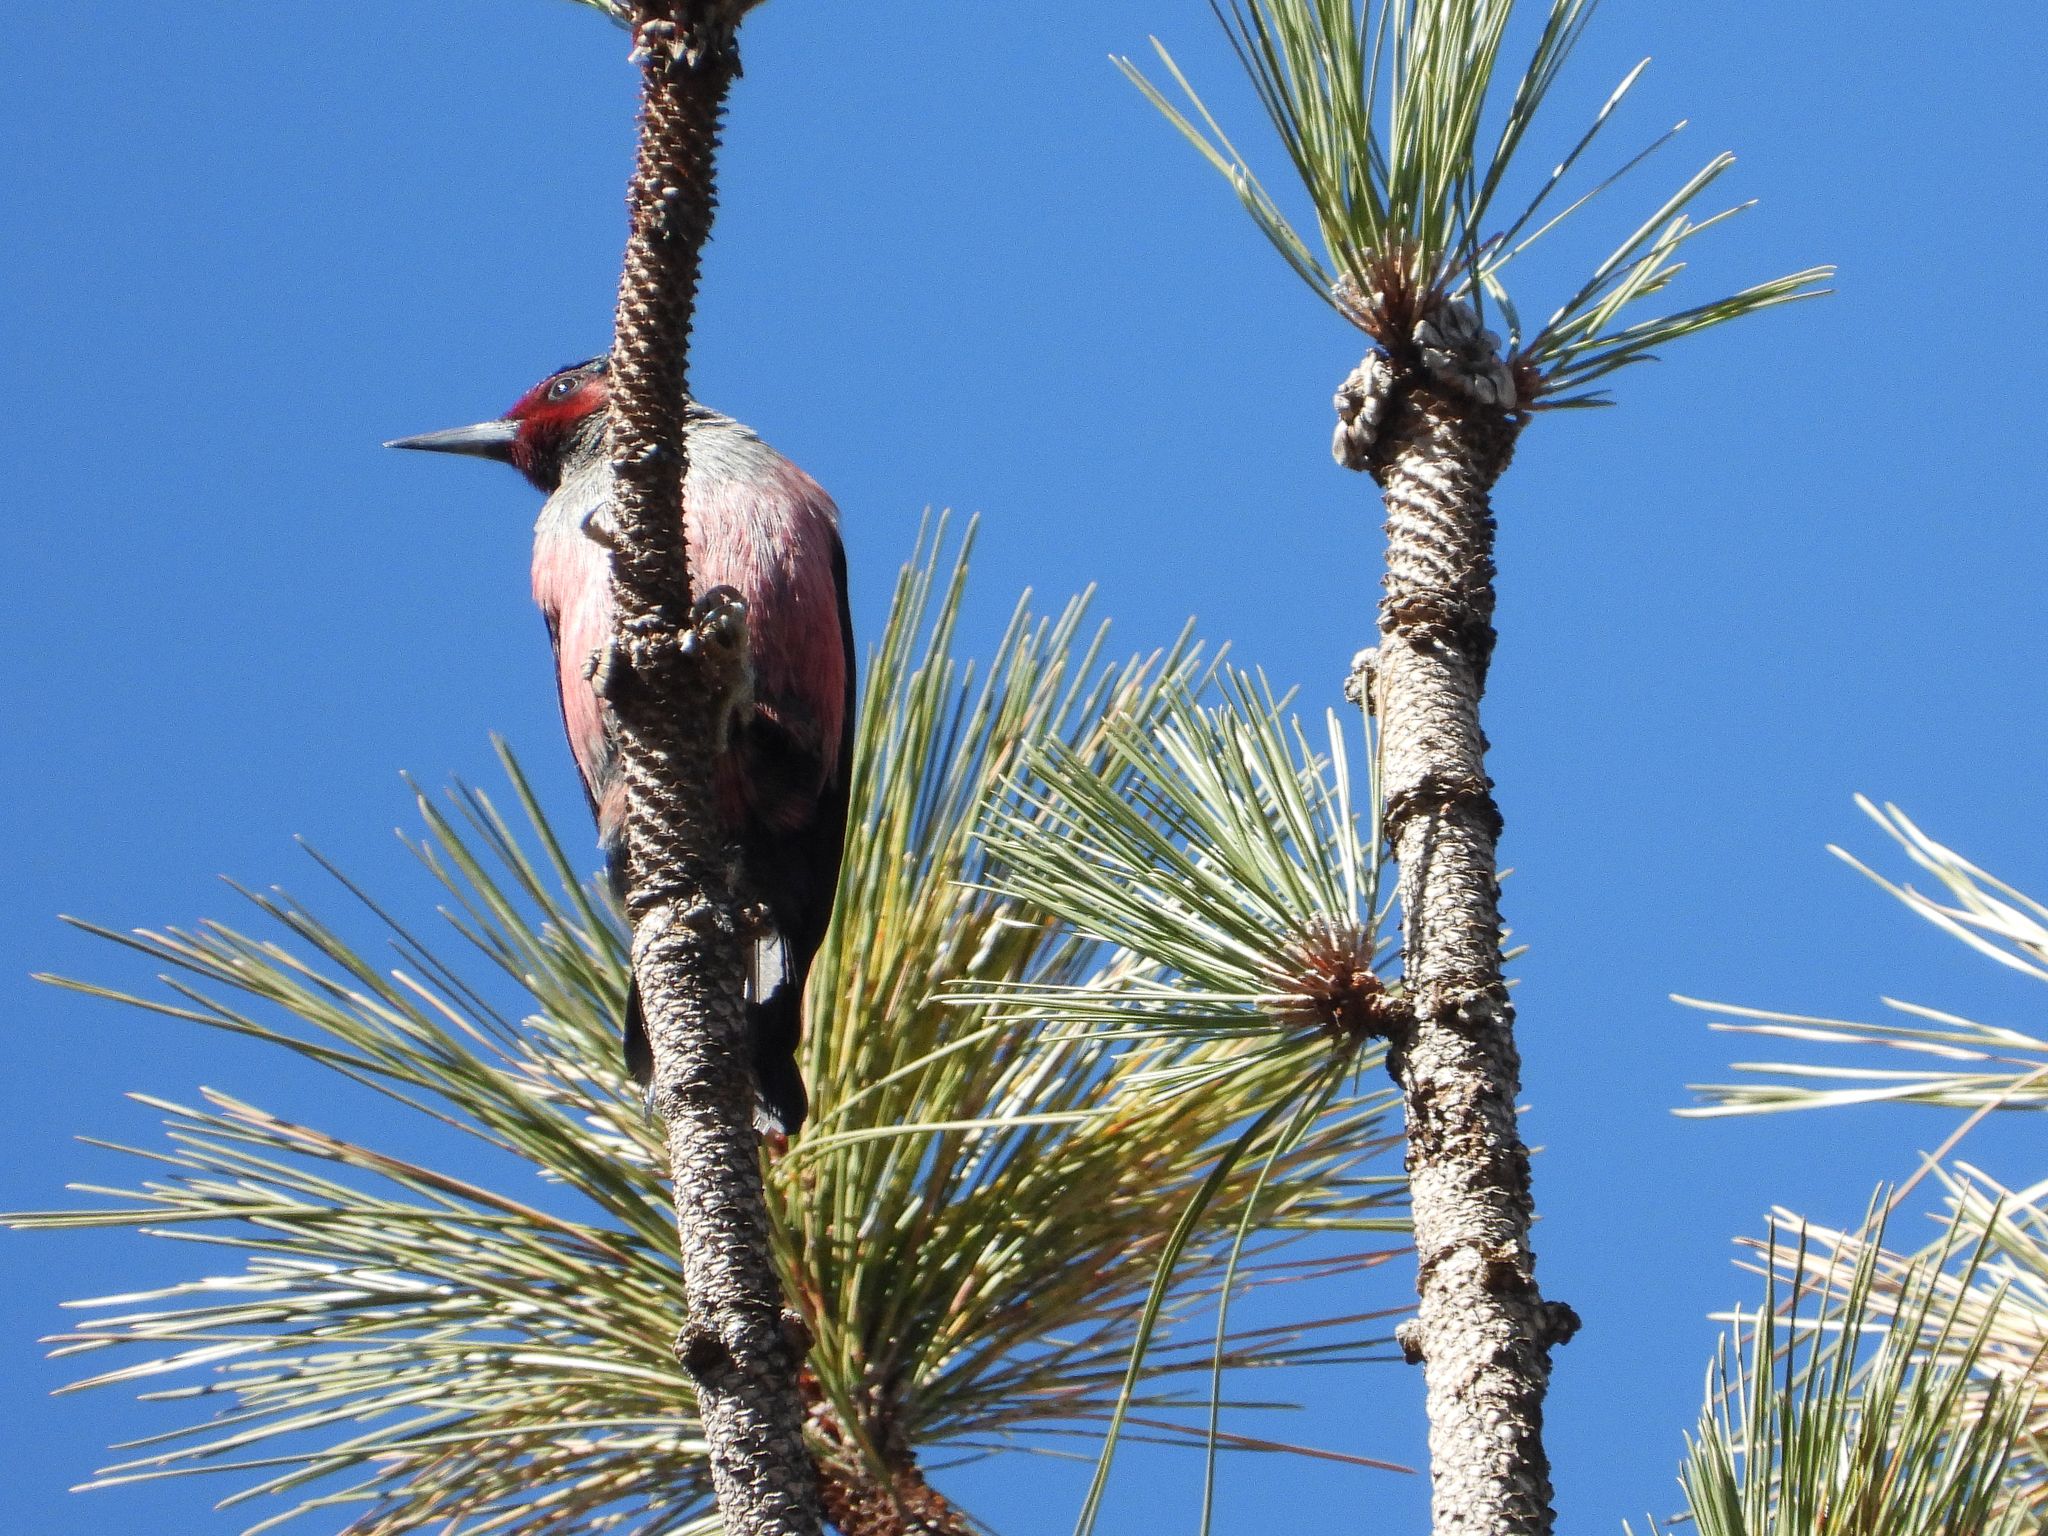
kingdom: Animalia
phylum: Chordata
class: Aves
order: Piciformes
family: Picidae
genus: Melanerpes
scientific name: Melanerpes lewis
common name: Lewis's woodpecker
